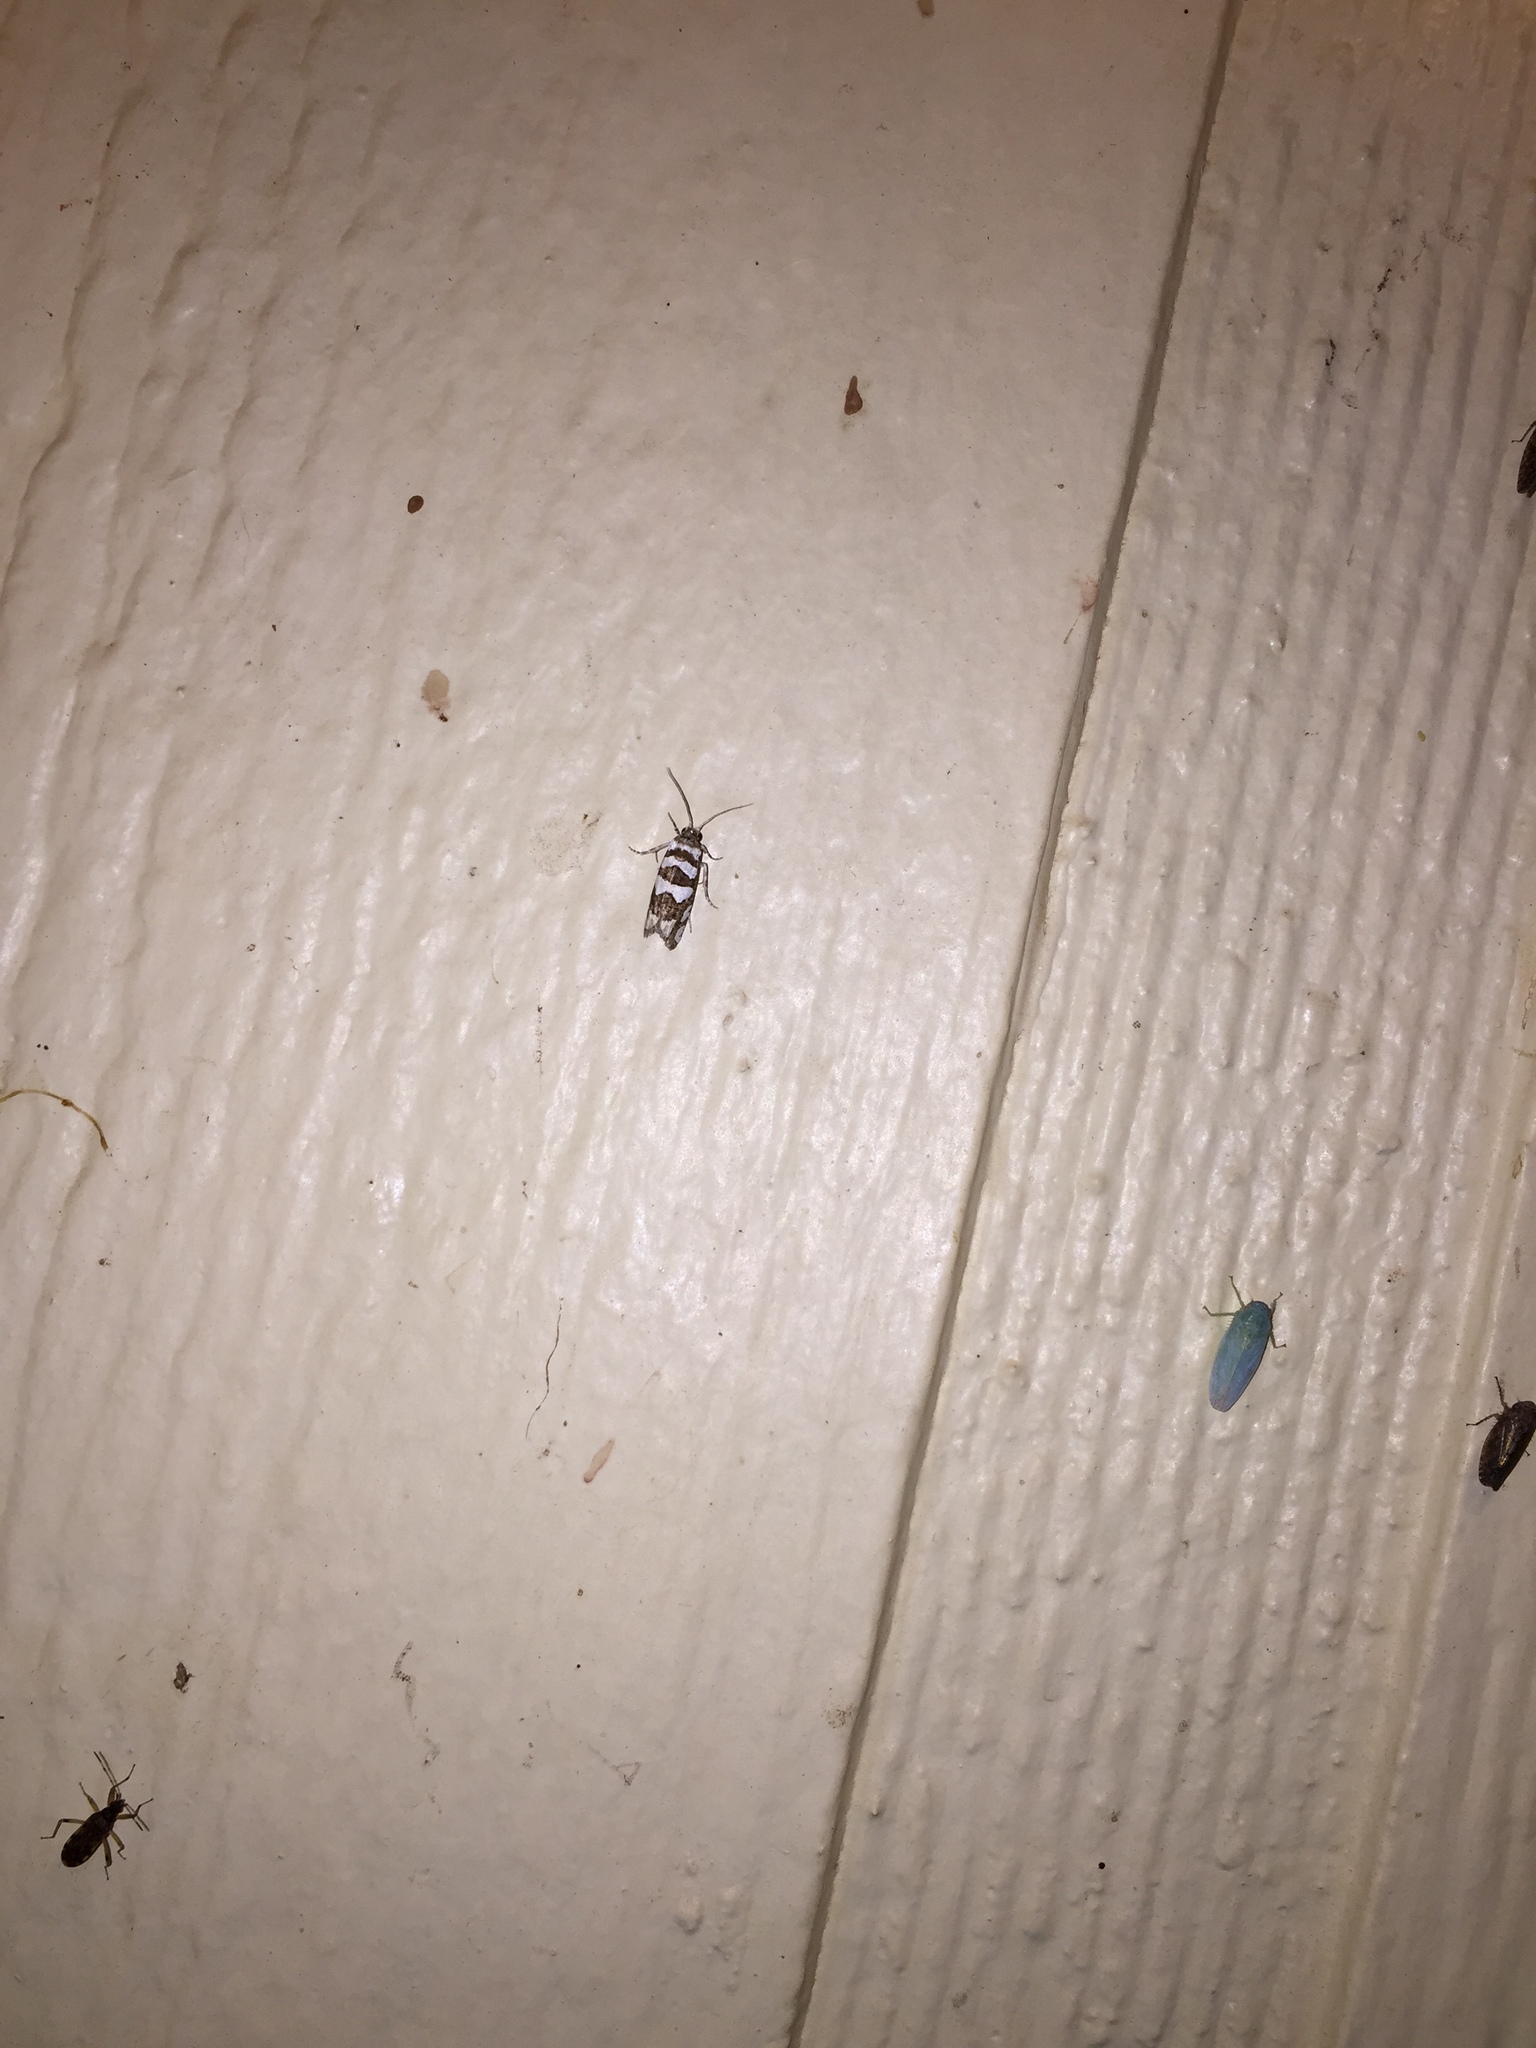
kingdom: Animalia
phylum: Arthropoda
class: Insecta
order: Lepidoptera
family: Tortricidae
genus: Pelochrista
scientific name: Pelochrista robinsonana
